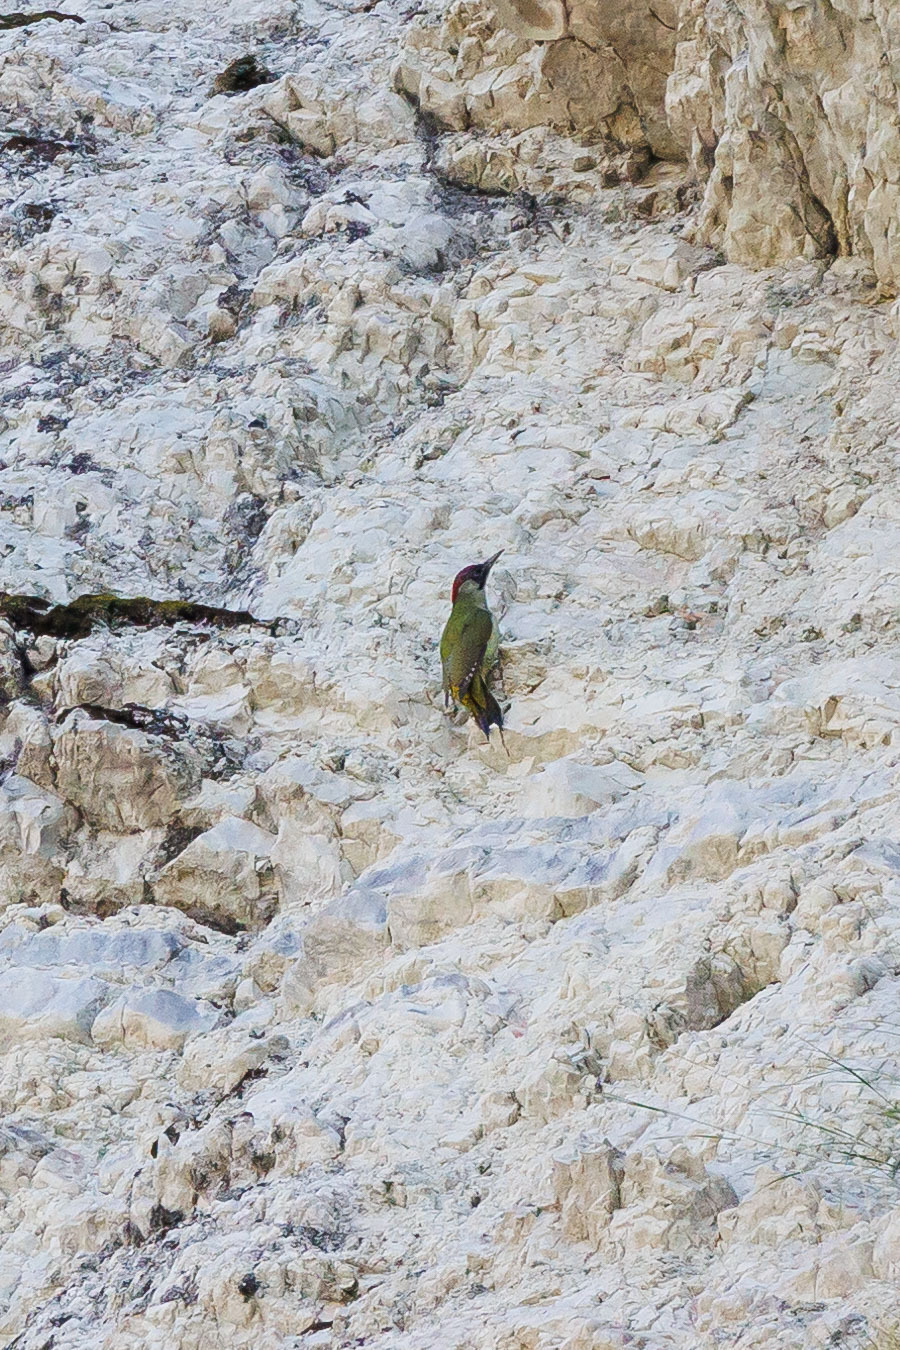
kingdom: Animalia
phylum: Chordata
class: Aves
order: Piciformes
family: Picidae
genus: Picus
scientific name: Picus viridis
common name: European green woodpecker
